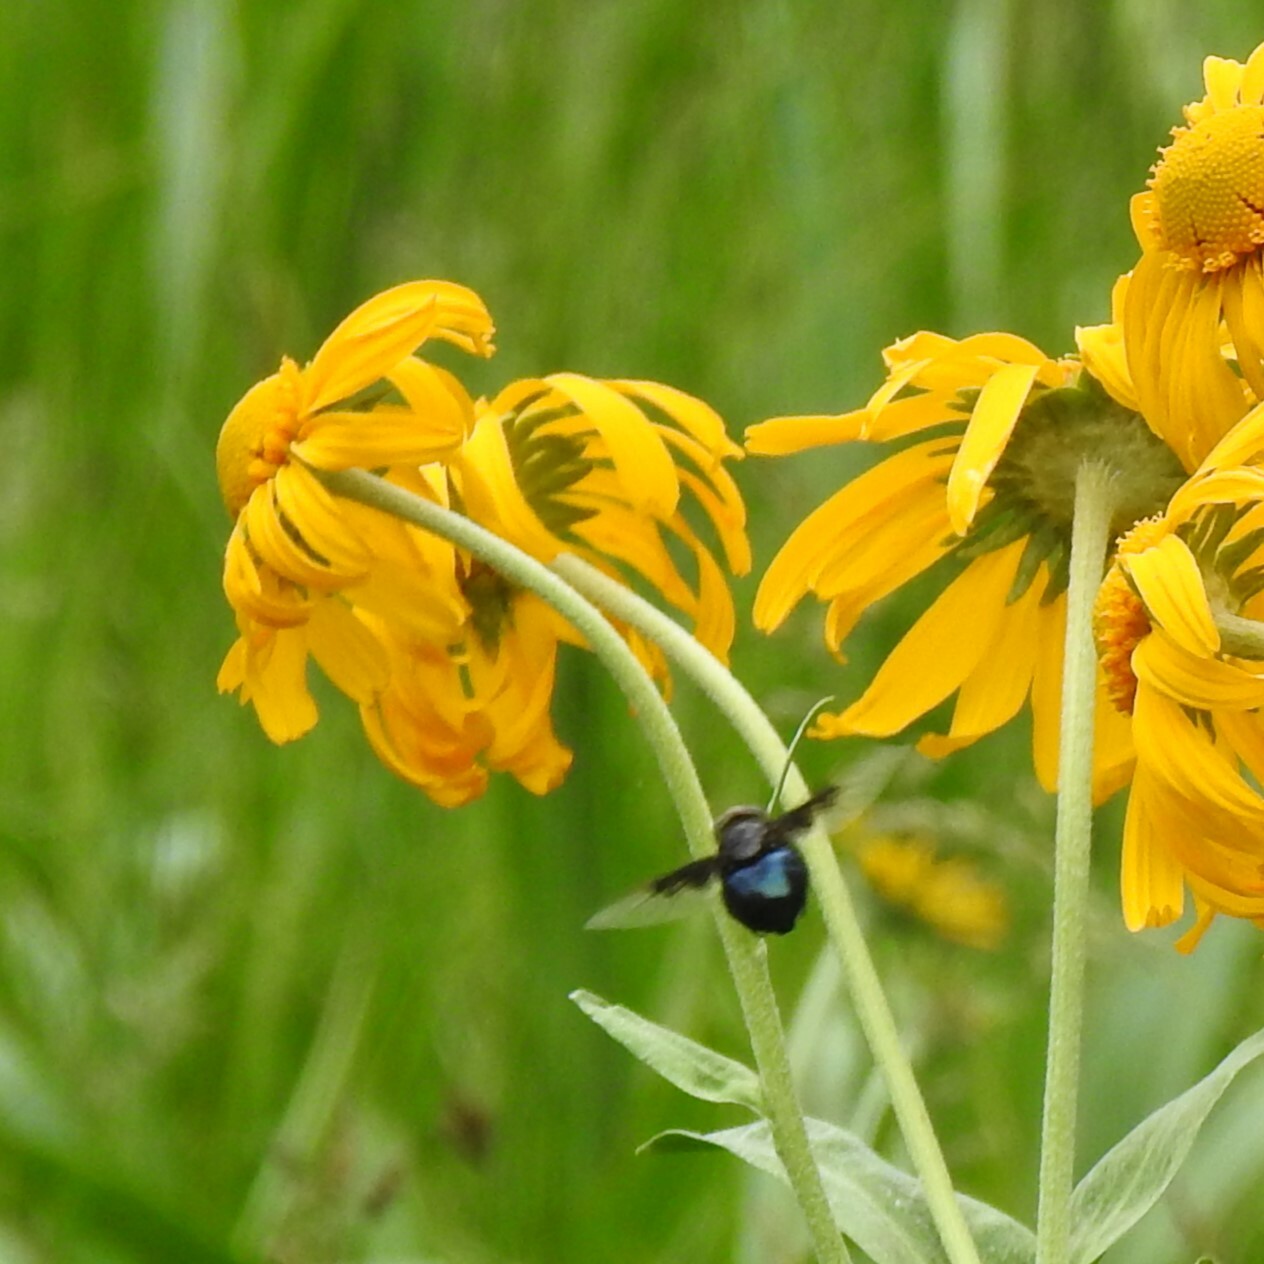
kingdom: Animalia
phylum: Arthropoda
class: Insecta
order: Diptera
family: Syrphidae
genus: Copestylum
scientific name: Copestylum
